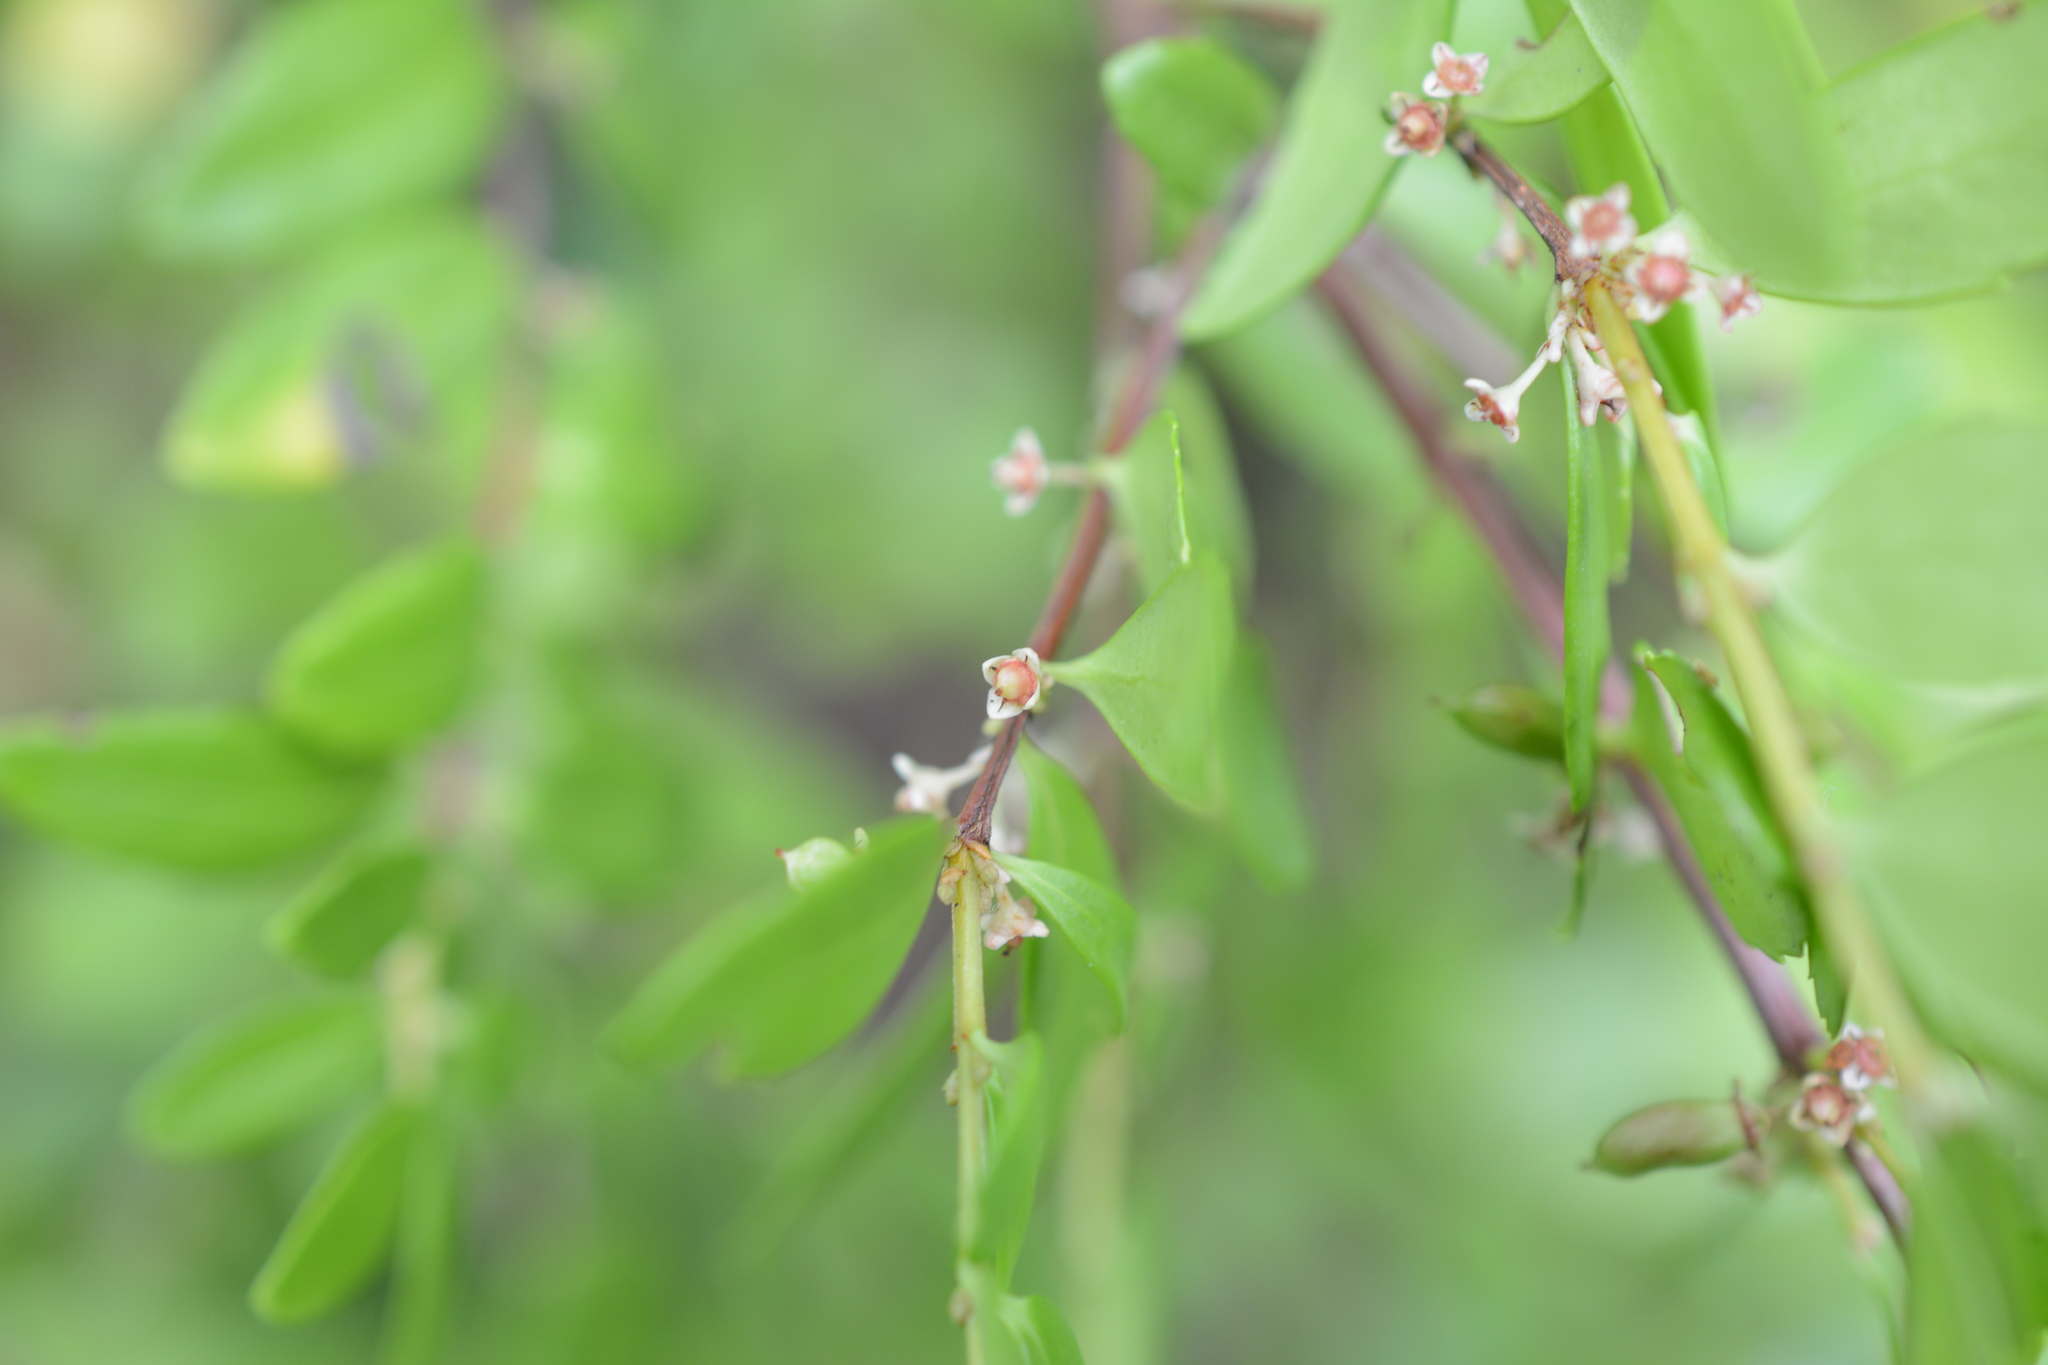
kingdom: Plantae
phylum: Tracheophyta
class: Magnoliopsida
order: Celastrales
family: Celastraceae
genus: Paxistima
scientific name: Paxistima myrsinites
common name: Mountain-lover
